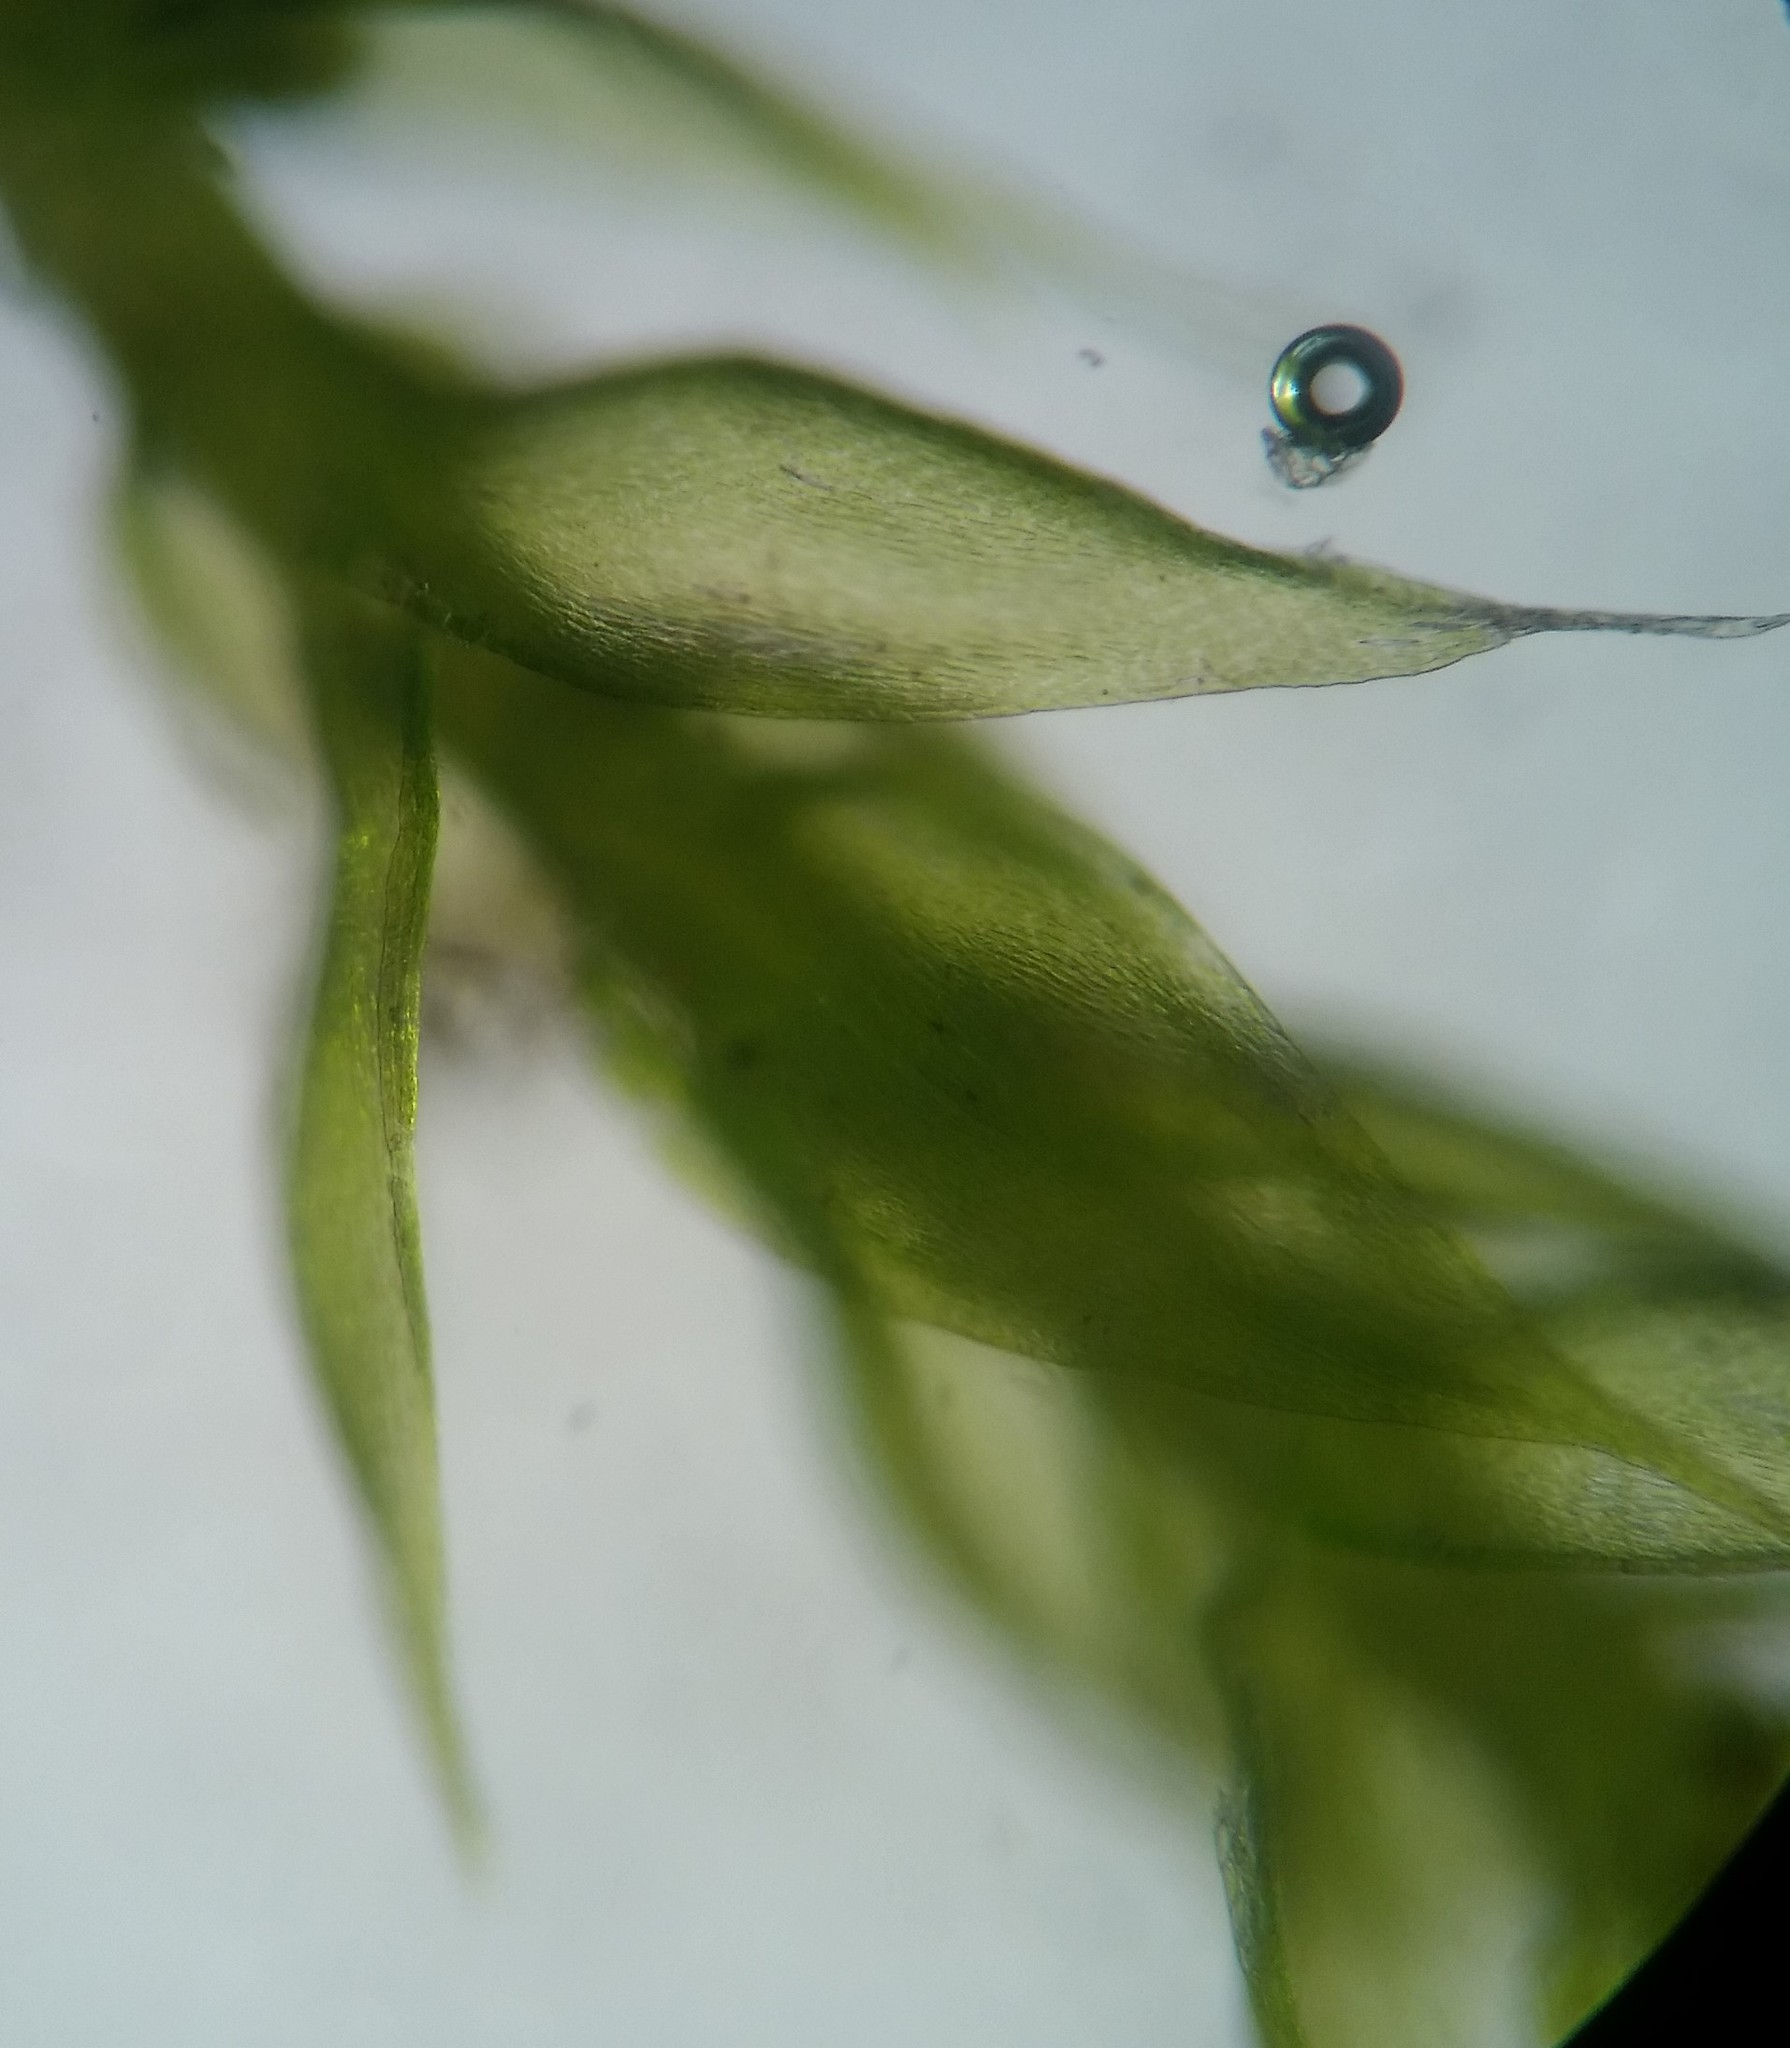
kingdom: Plantae
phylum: Bryophyta
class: Bryopsida
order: Hypnales
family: Pylaisiadelphaceae
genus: Platygyrium
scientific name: Platygyrium repens
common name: Flat-brocade moss
